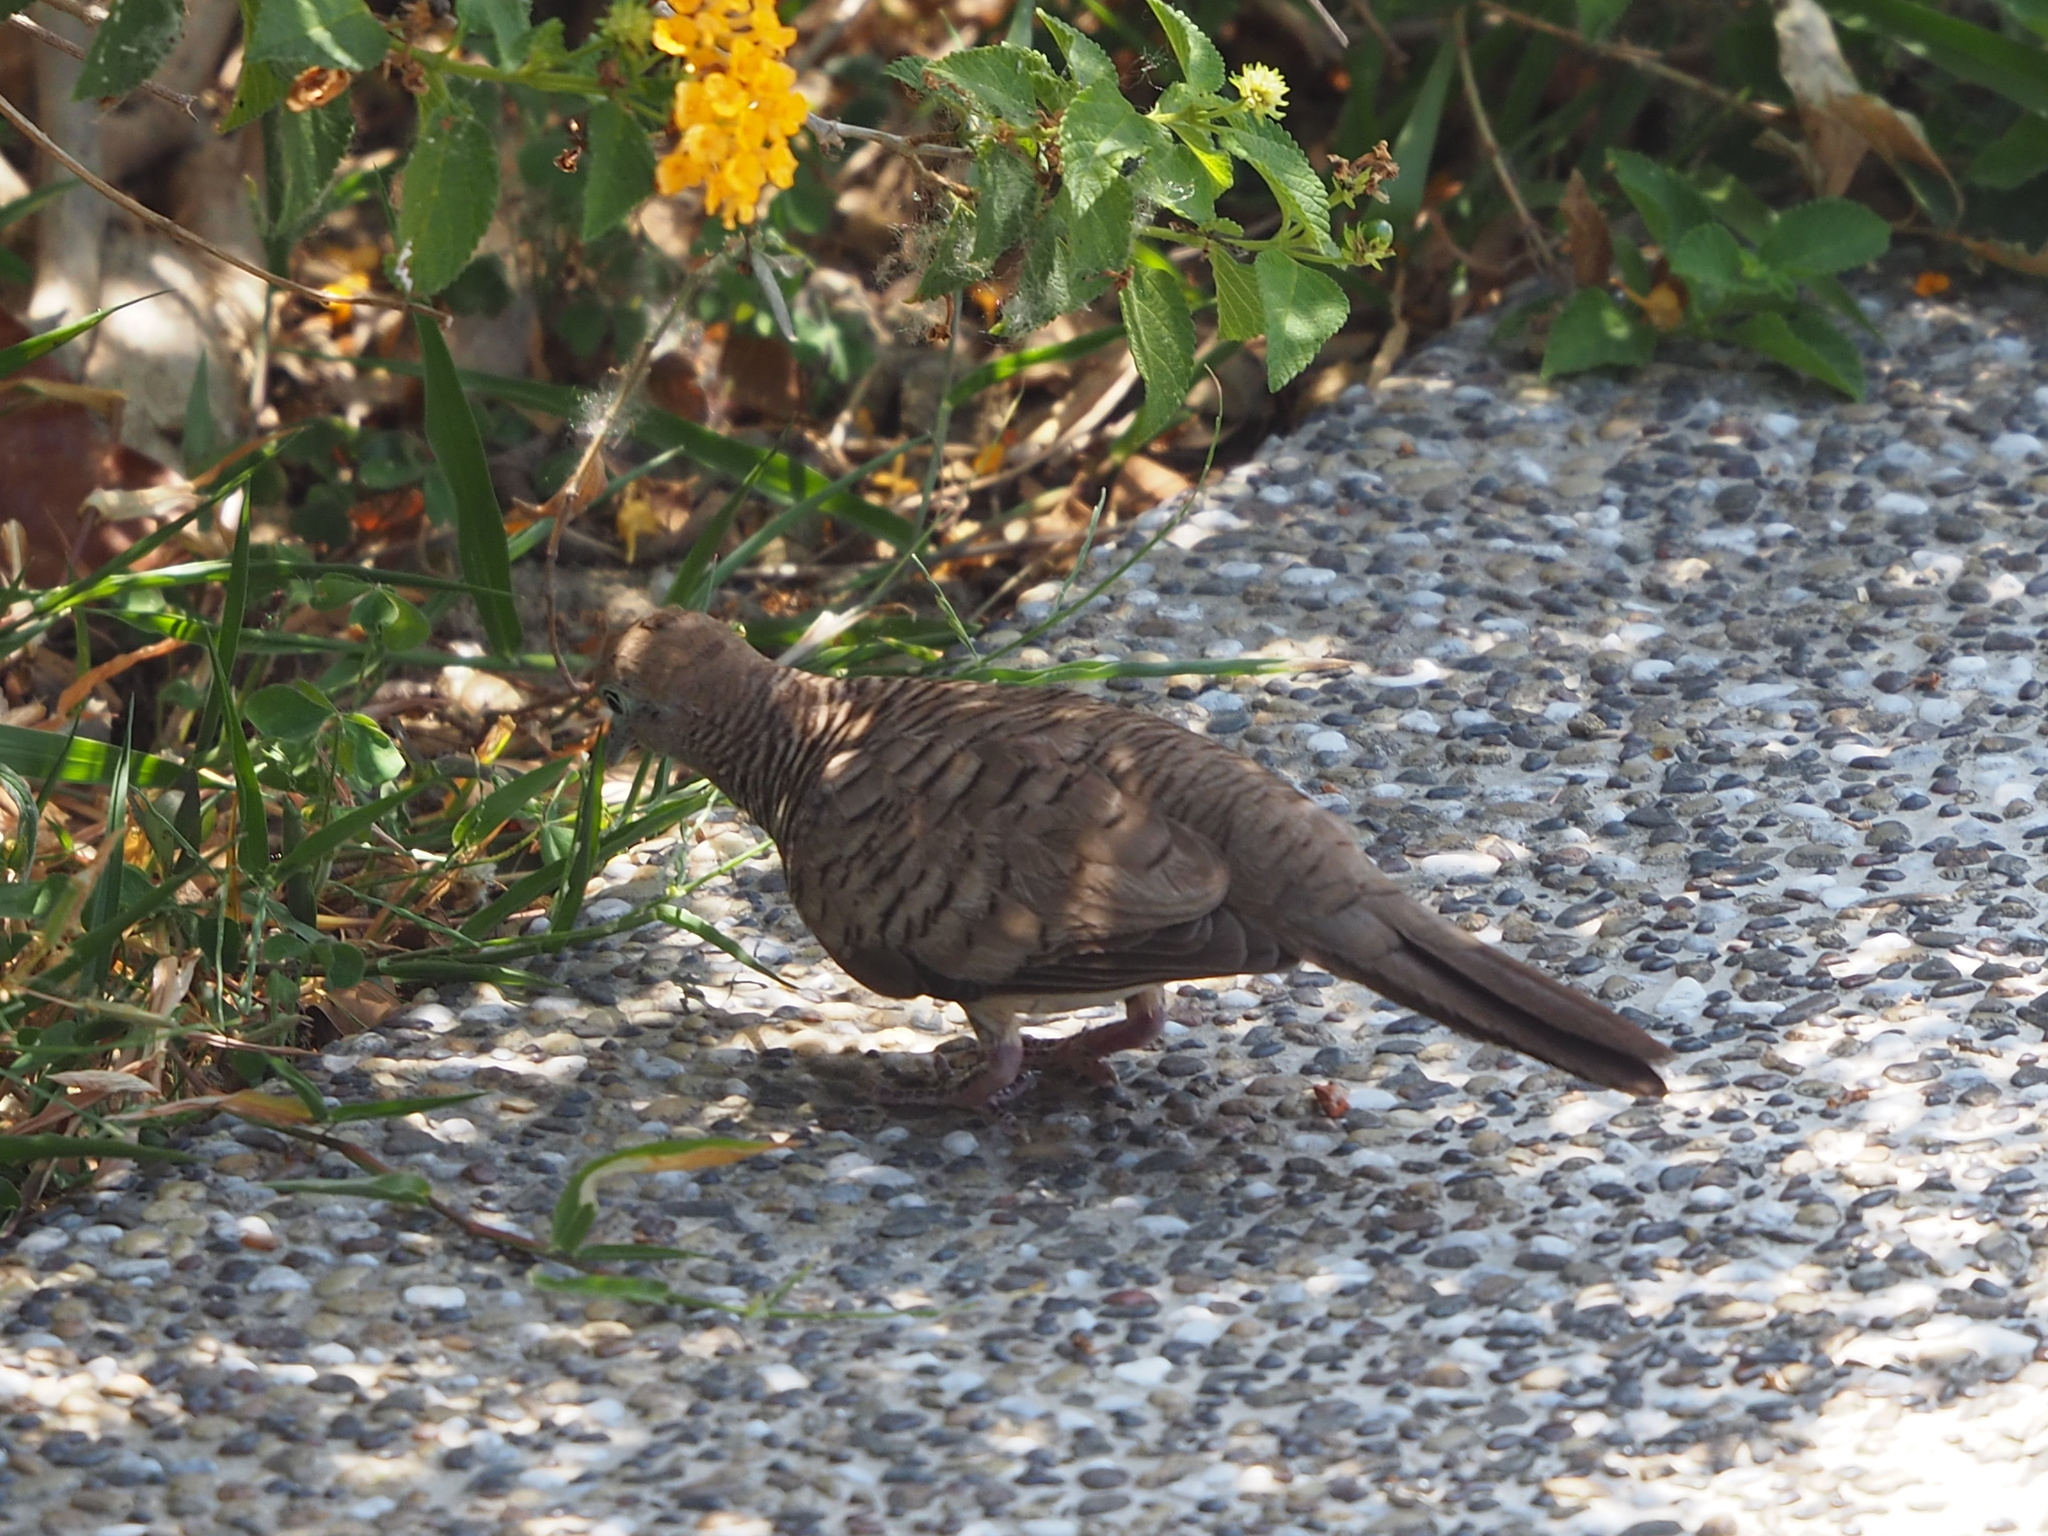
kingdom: Animalia
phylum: Chordata
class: Aves
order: Columbiformes
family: Columbidae
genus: Geopelia
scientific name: Geopelia striata
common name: Zebra dove
